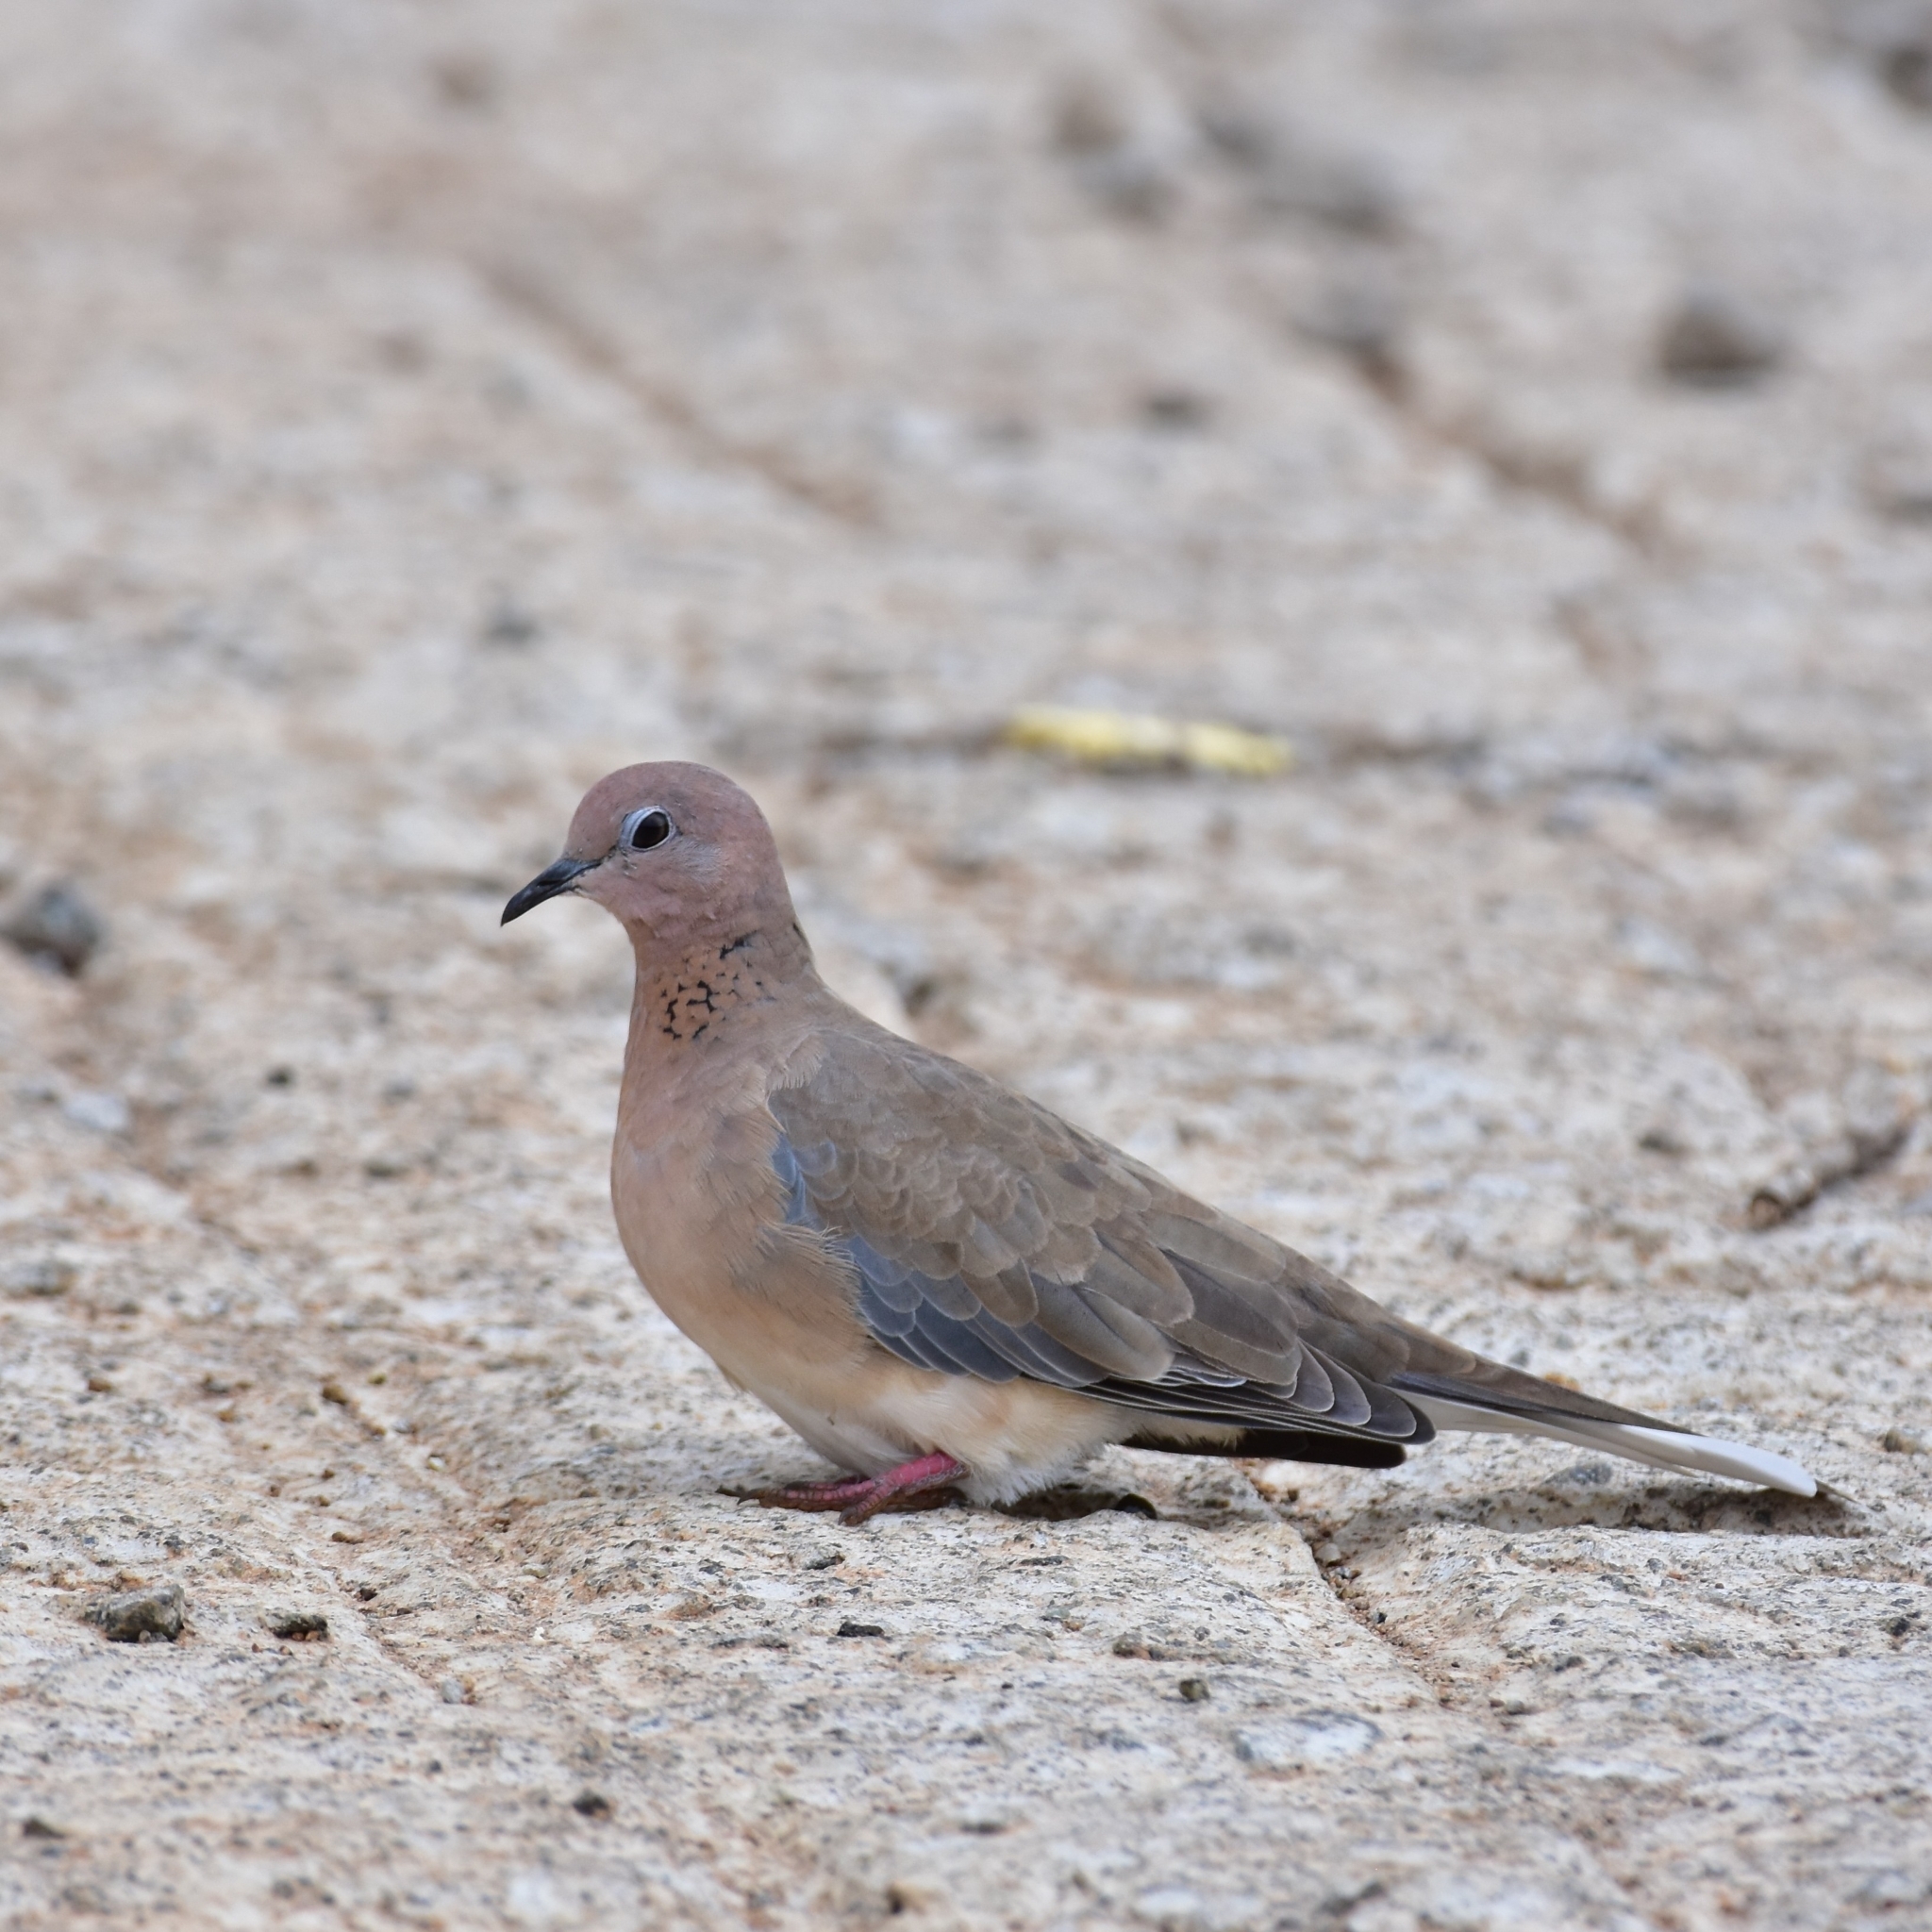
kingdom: Animalia
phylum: Chordata
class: Aves
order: Columbiformes
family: Columbidae
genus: Spilopelia
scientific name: Spilopelia senegalensis
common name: Laughing dove
